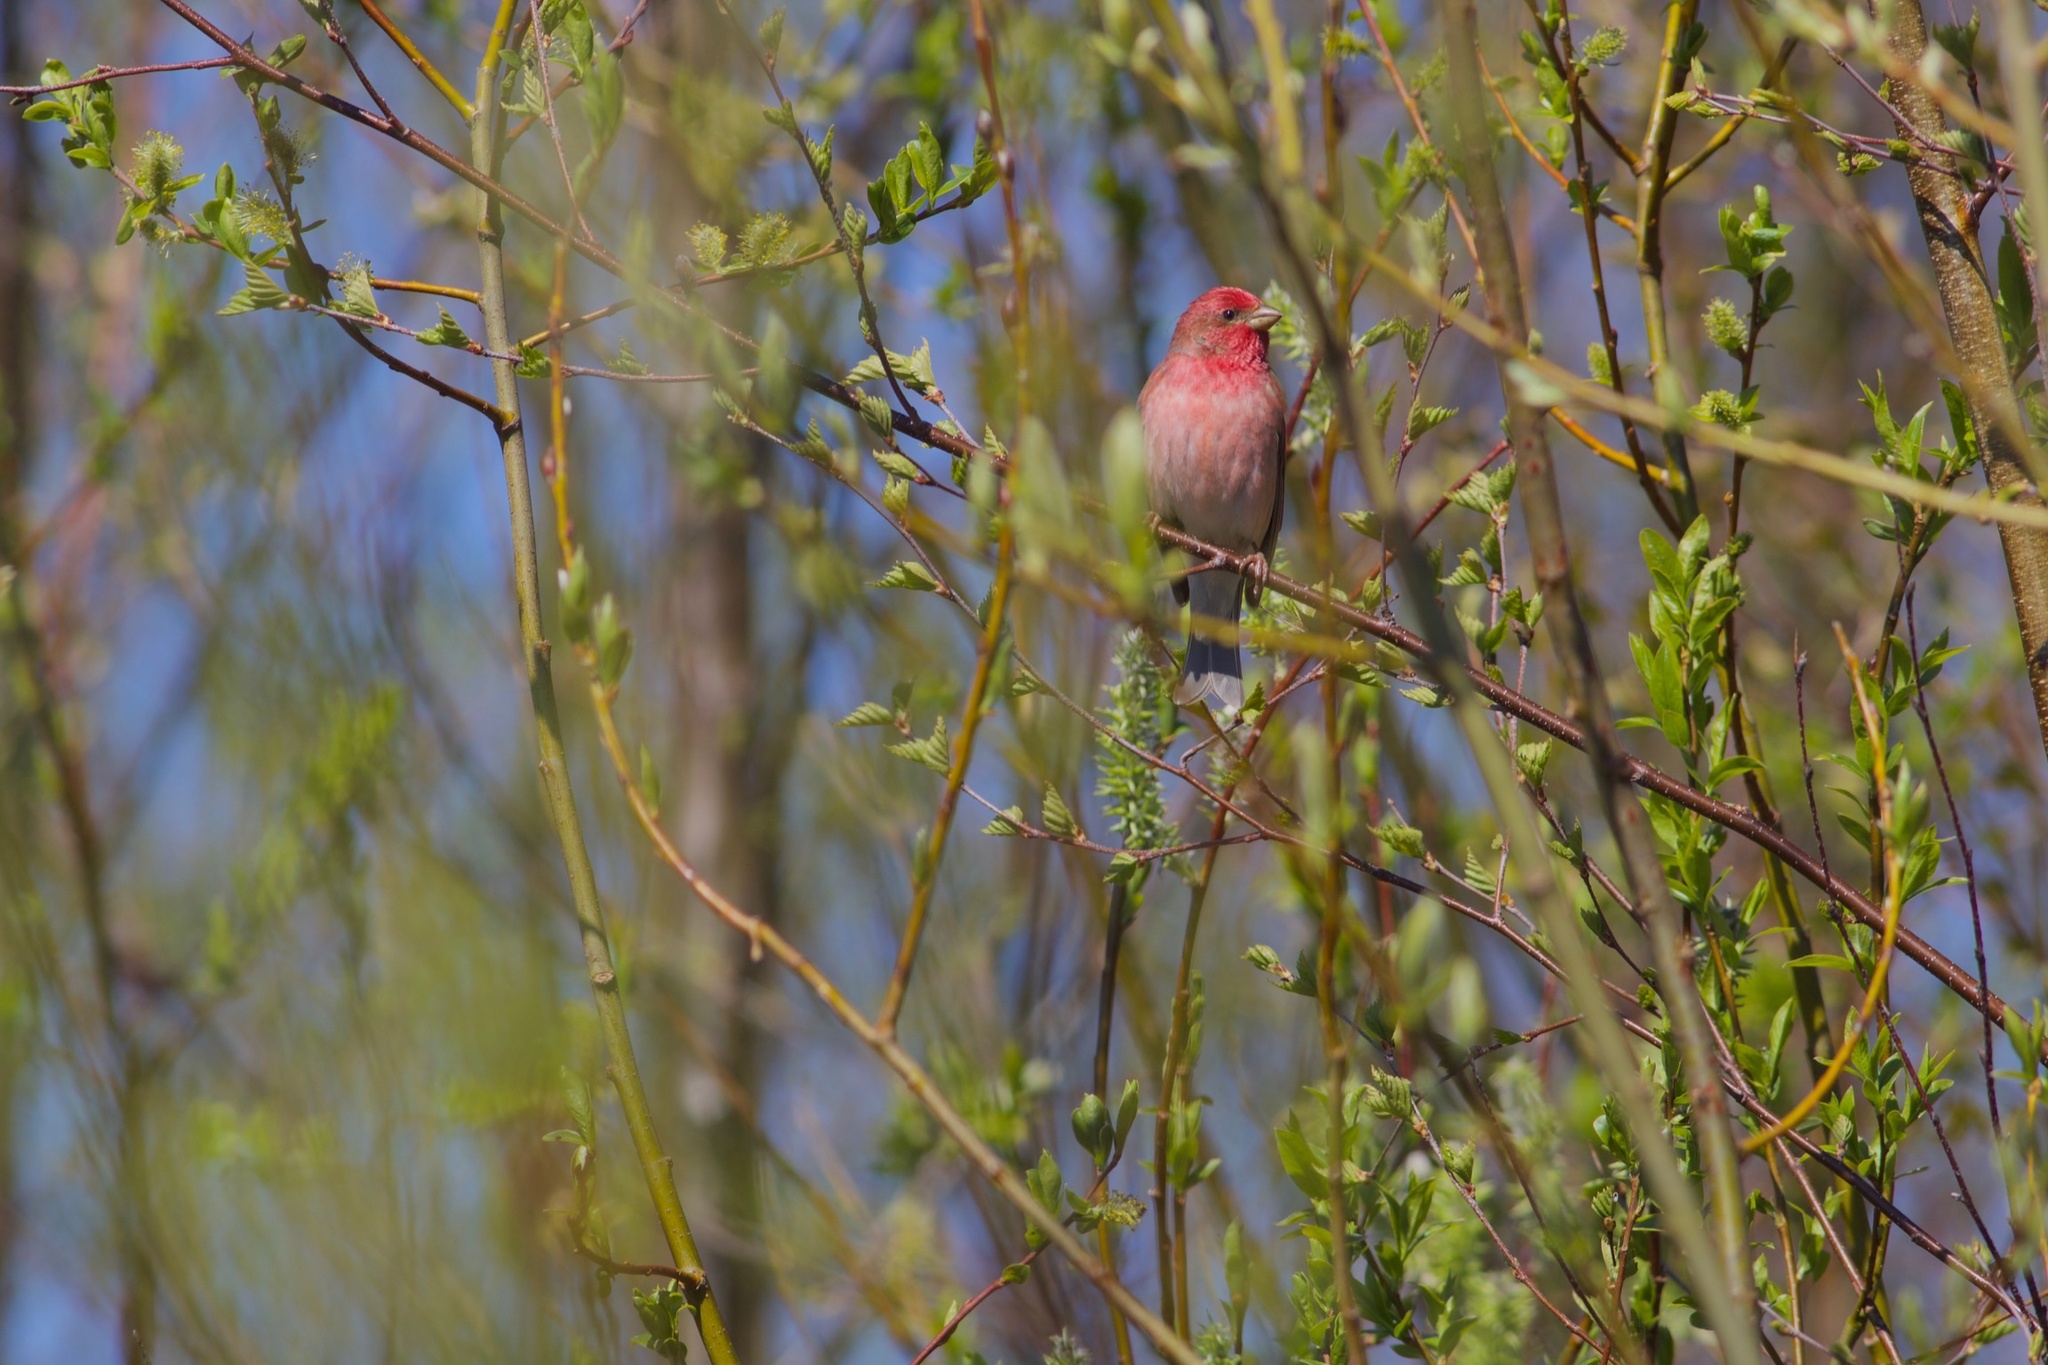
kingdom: Animalia
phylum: Chordata
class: Aves
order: Passeriformes
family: Fringillidae
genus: Carpodacus
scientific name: Carpodacus erythrinus
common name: Common rosefinch
